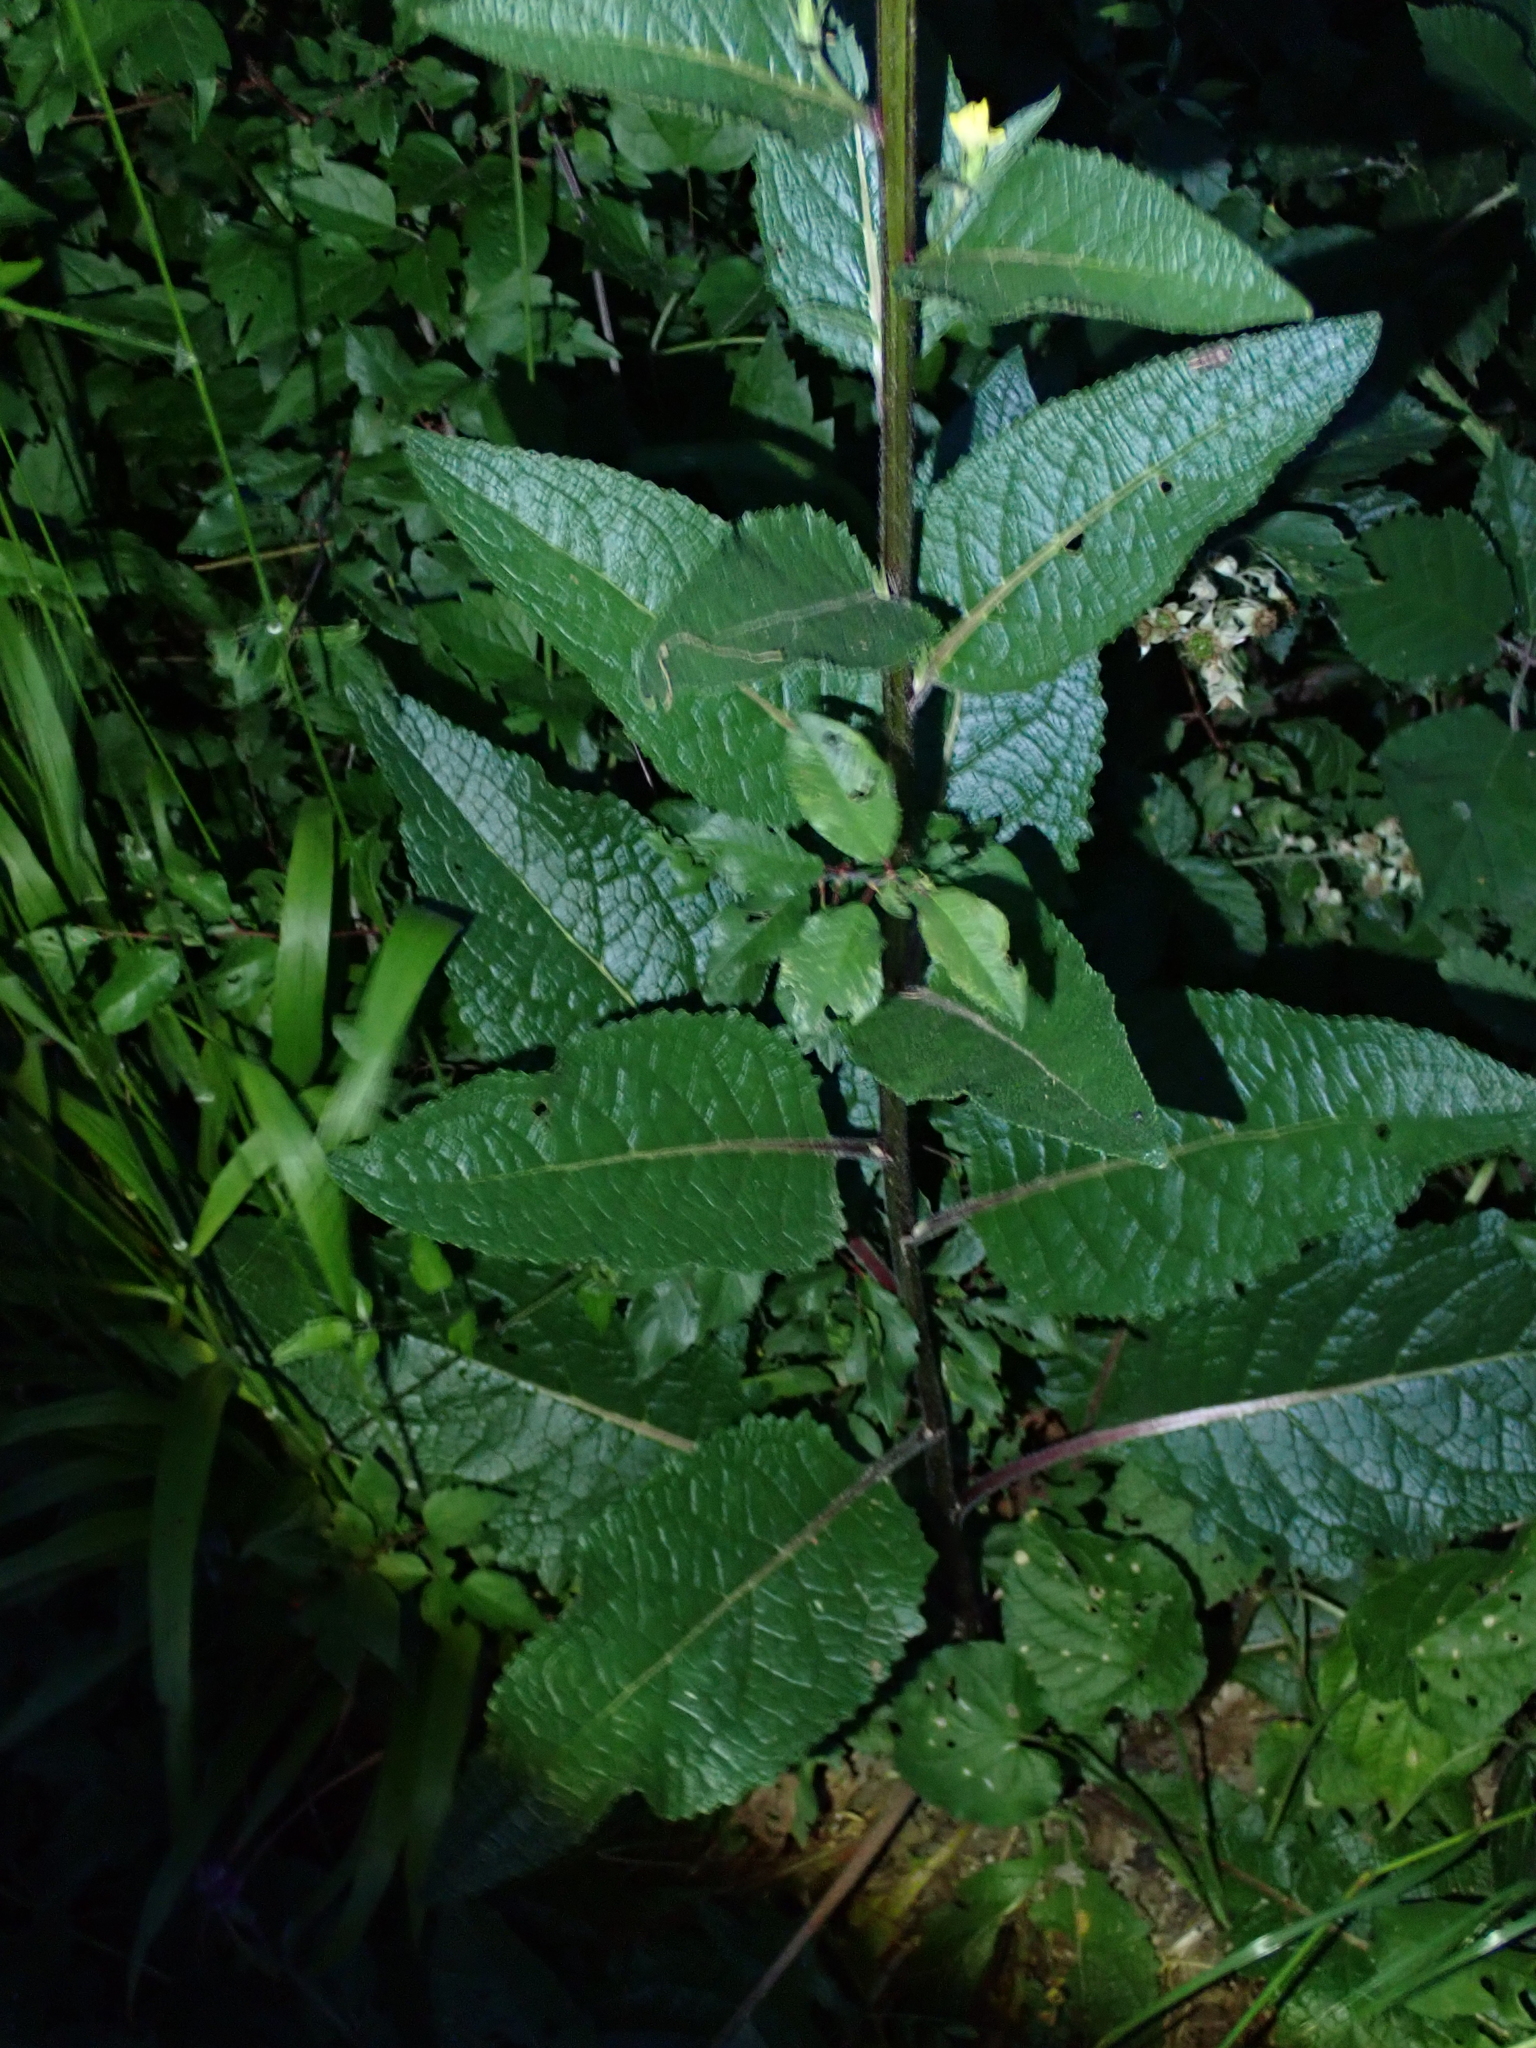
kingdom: Plantae
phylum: Tracheophyta
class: Magnoliopsida
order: Lamiales
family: Scrophulariaceae
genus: Verbascum
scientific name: Verbascum chaixii
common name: Nettle-leaved mullein
